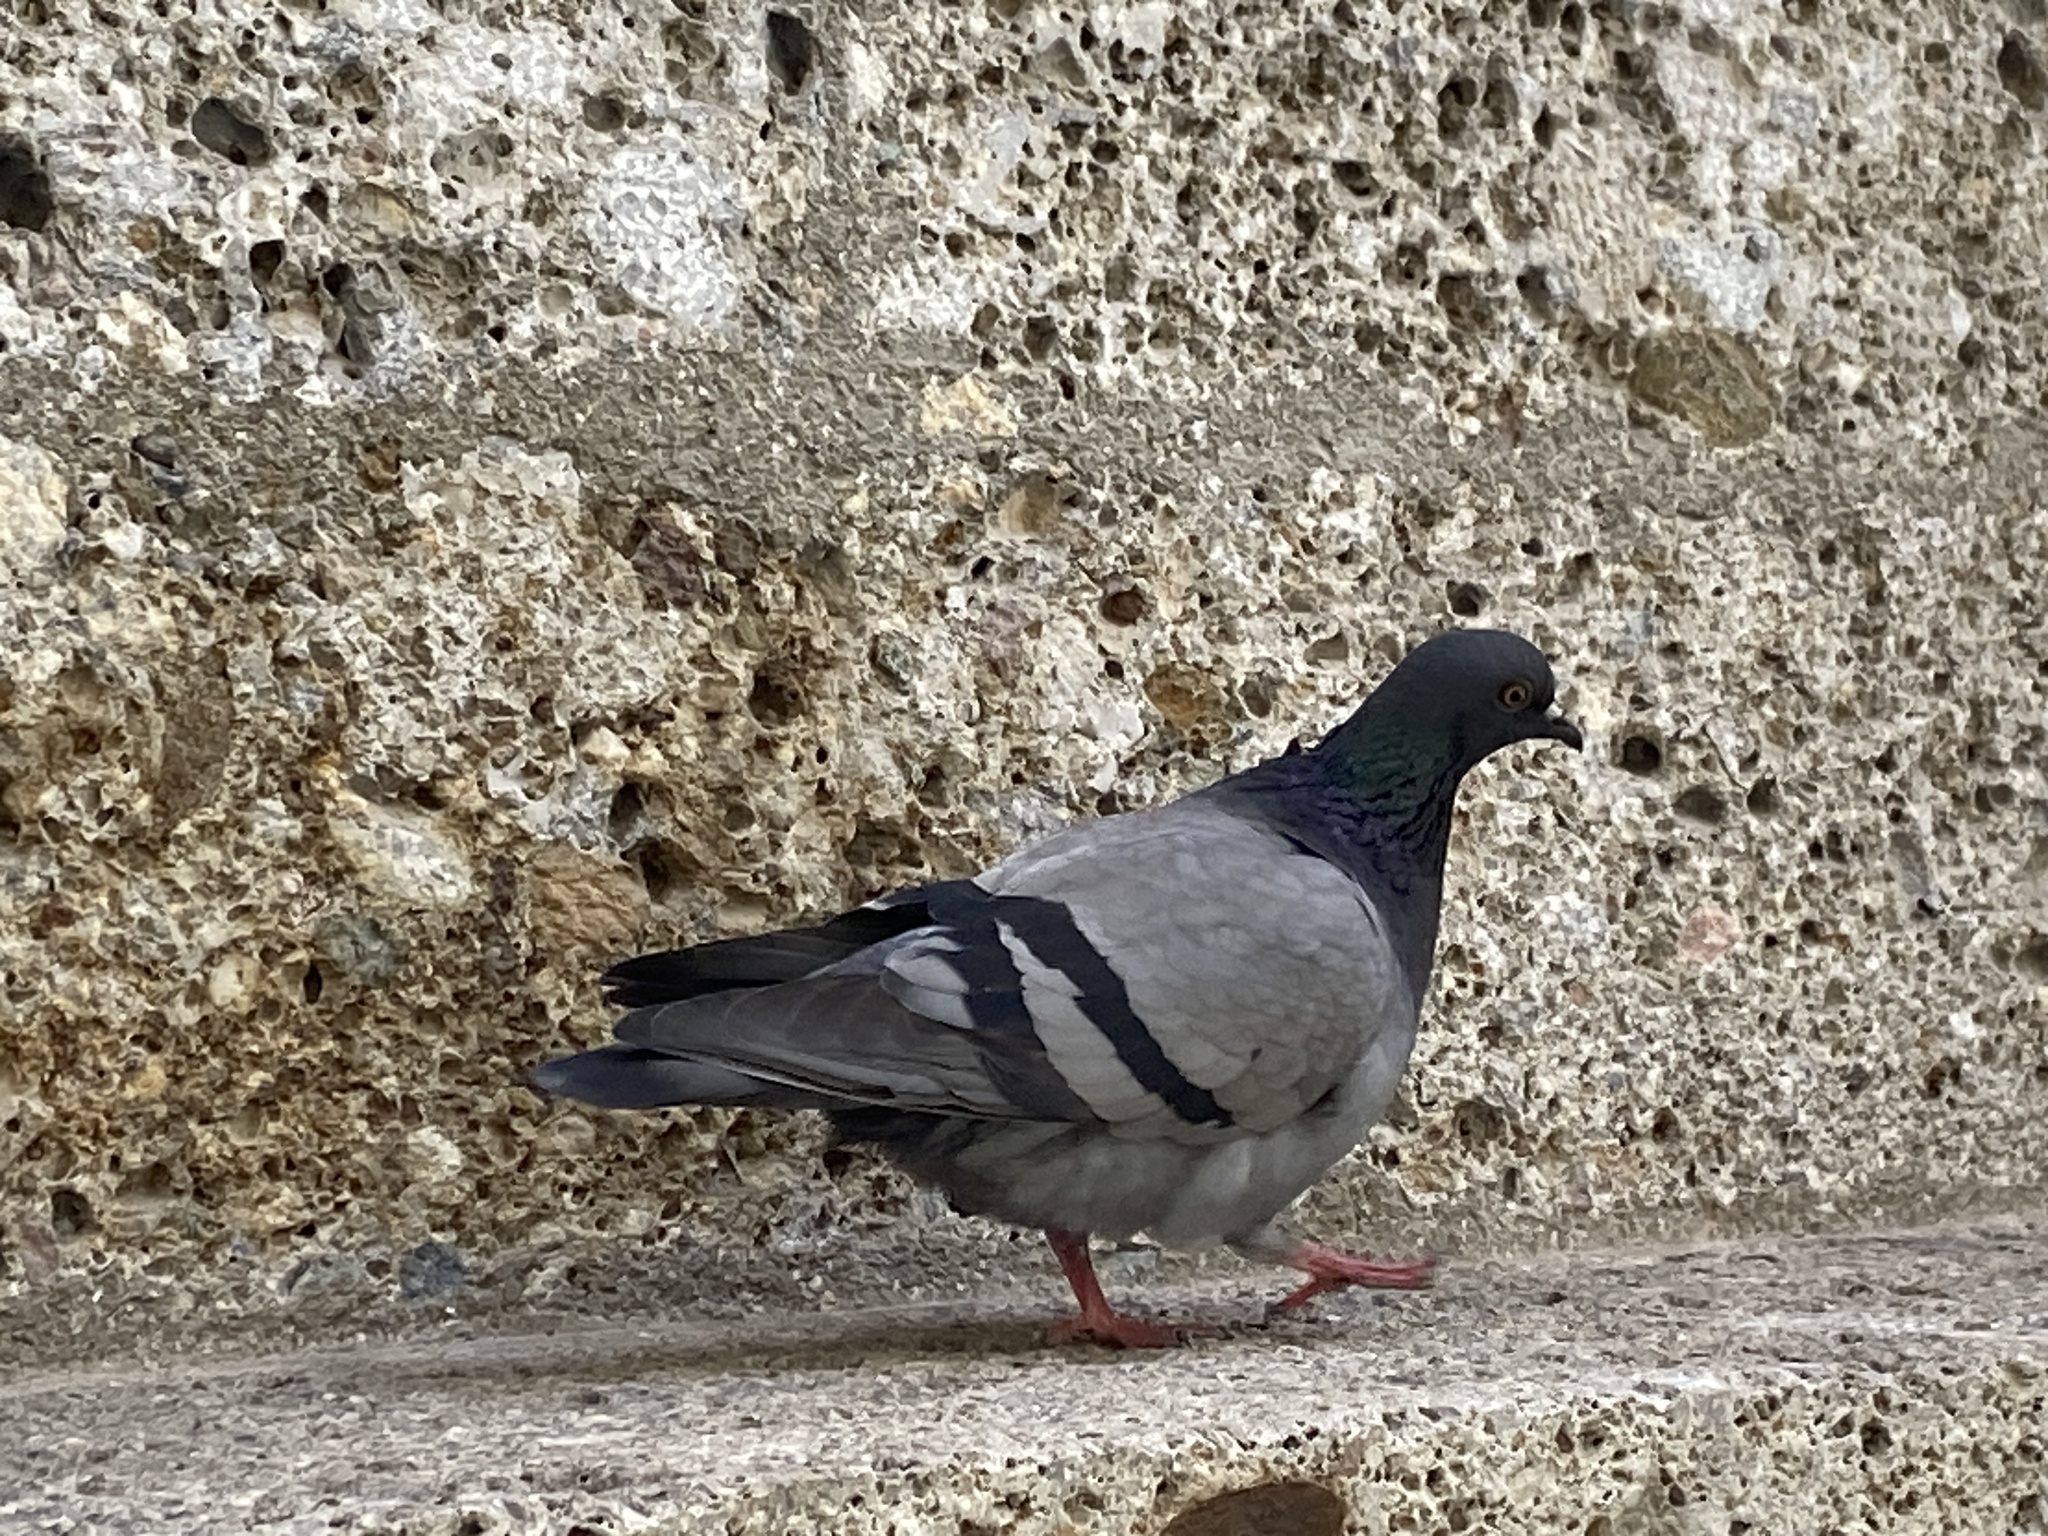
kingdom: Animalia
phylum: Chordata
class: Aves
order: Columbiformes
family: Columbidae
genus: Columba
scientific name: Columba livia
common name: Rock pigeon
